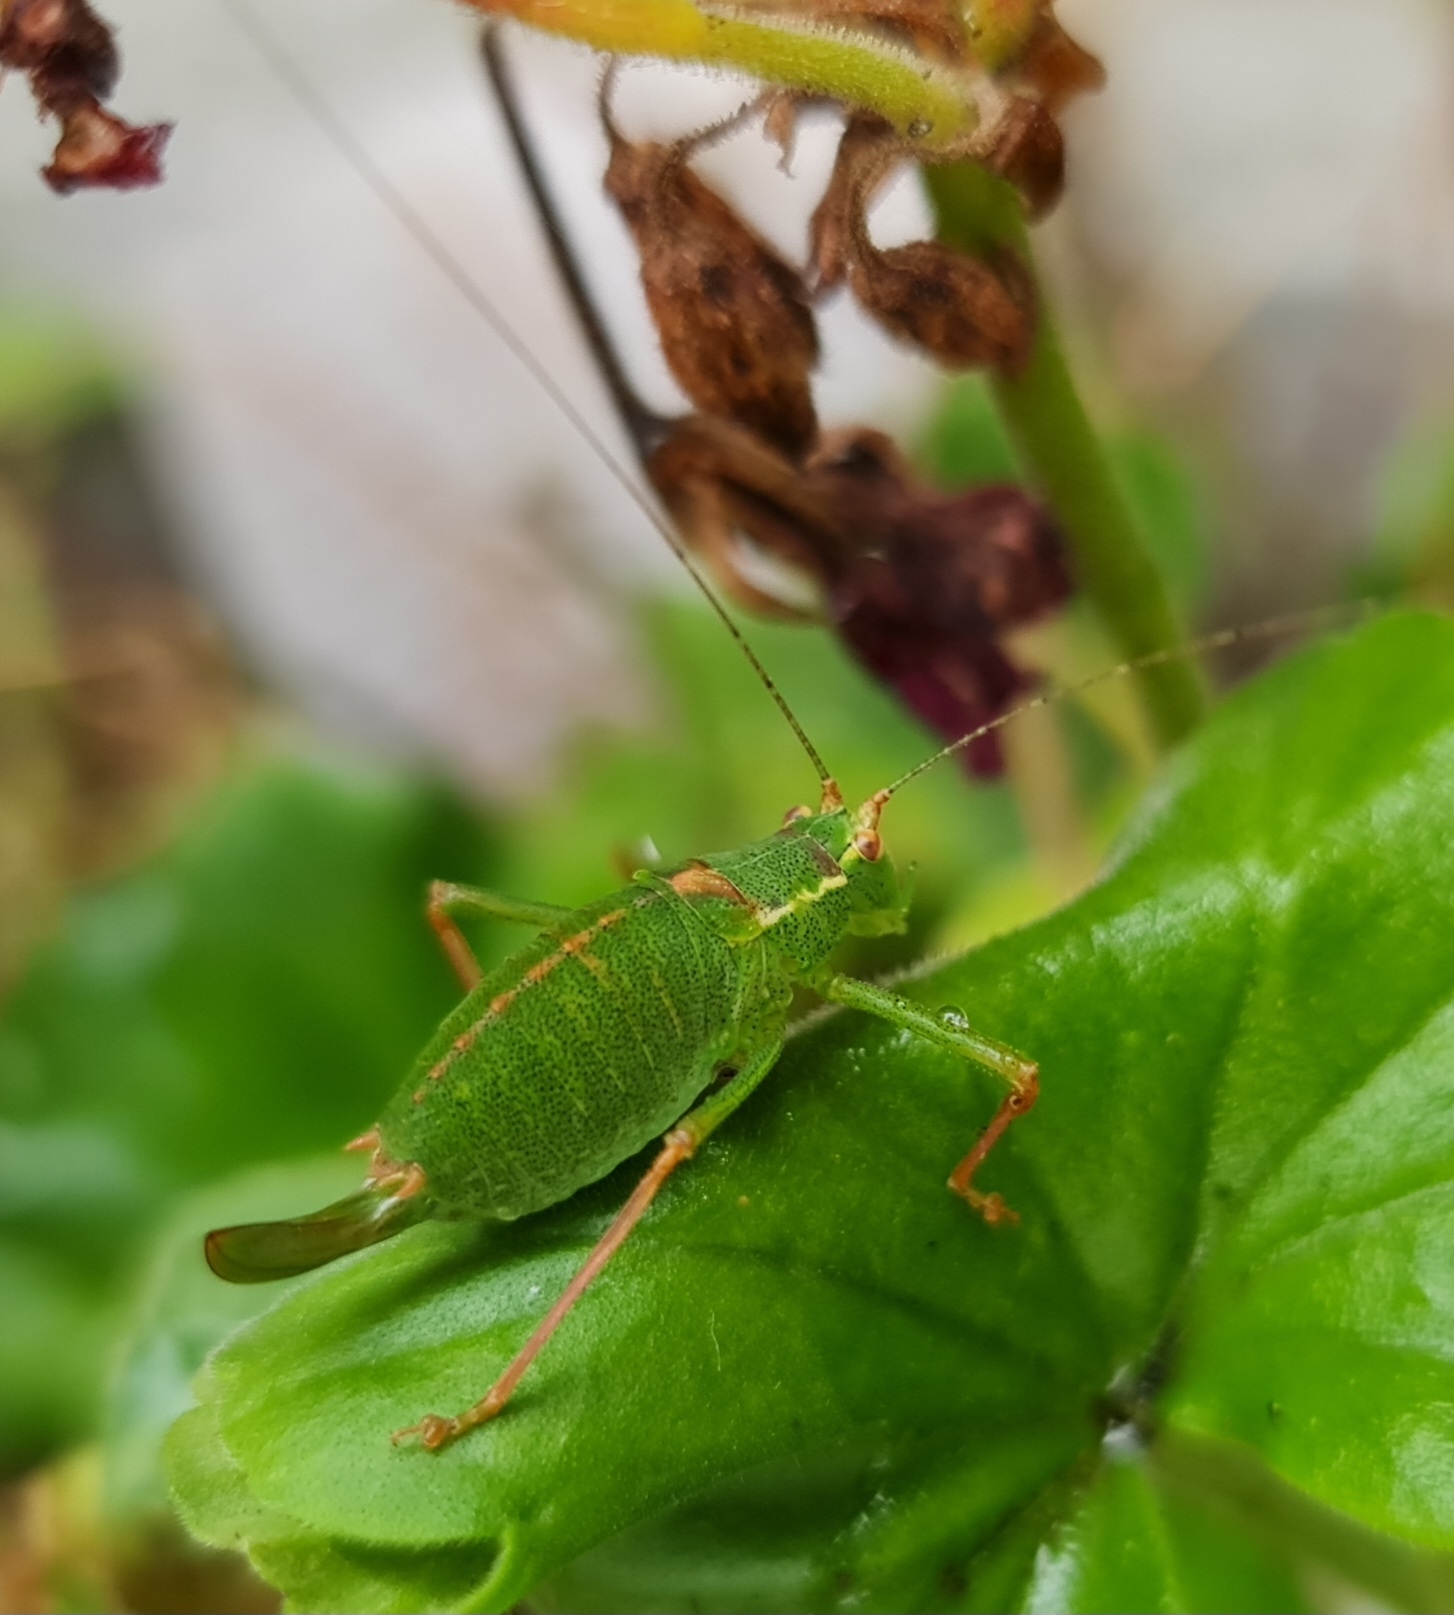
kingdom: Animalia
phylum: Arthropoda
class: Insecta
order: Orthoptera
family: Tettigoniidae
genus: Leptophyes
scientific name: Leptophyes punctatissima
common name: Speckled bush-cricket
